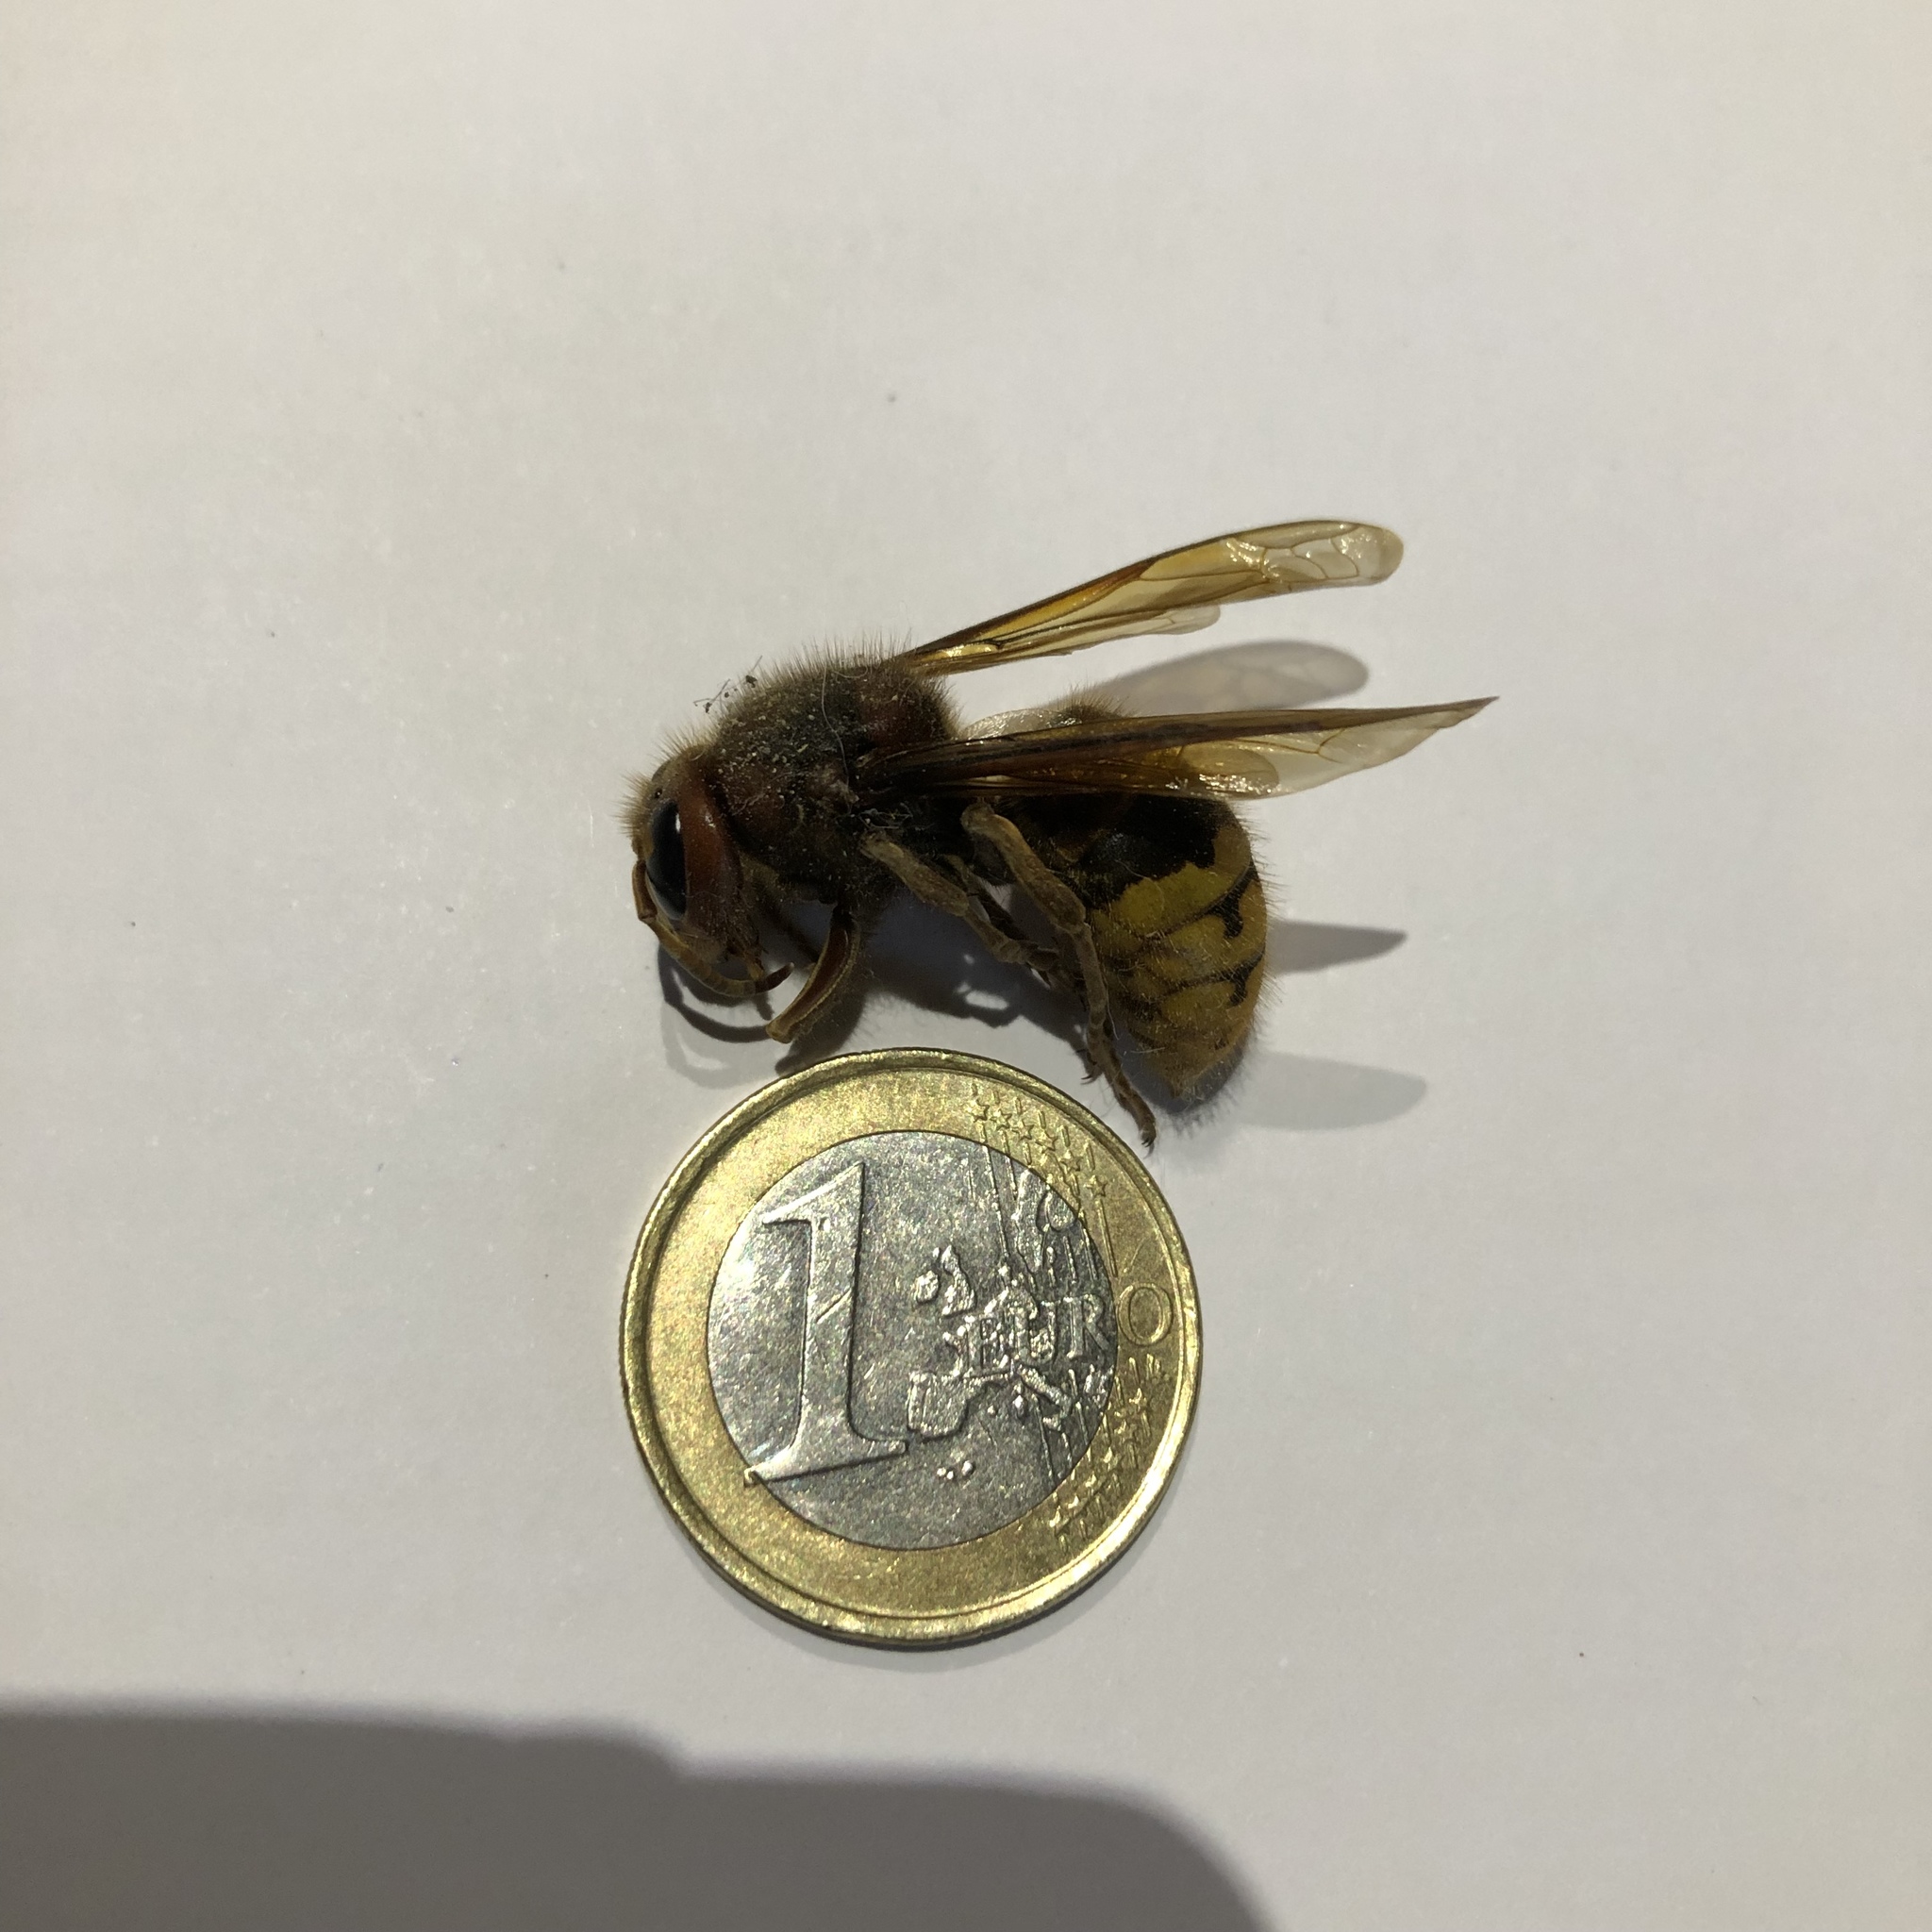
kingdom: Animalia
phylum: Arthropoda
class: Insecta
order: Hymenoptera
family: Vespidae
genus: Vespa
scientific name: Vespa crabro
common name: Hornet
